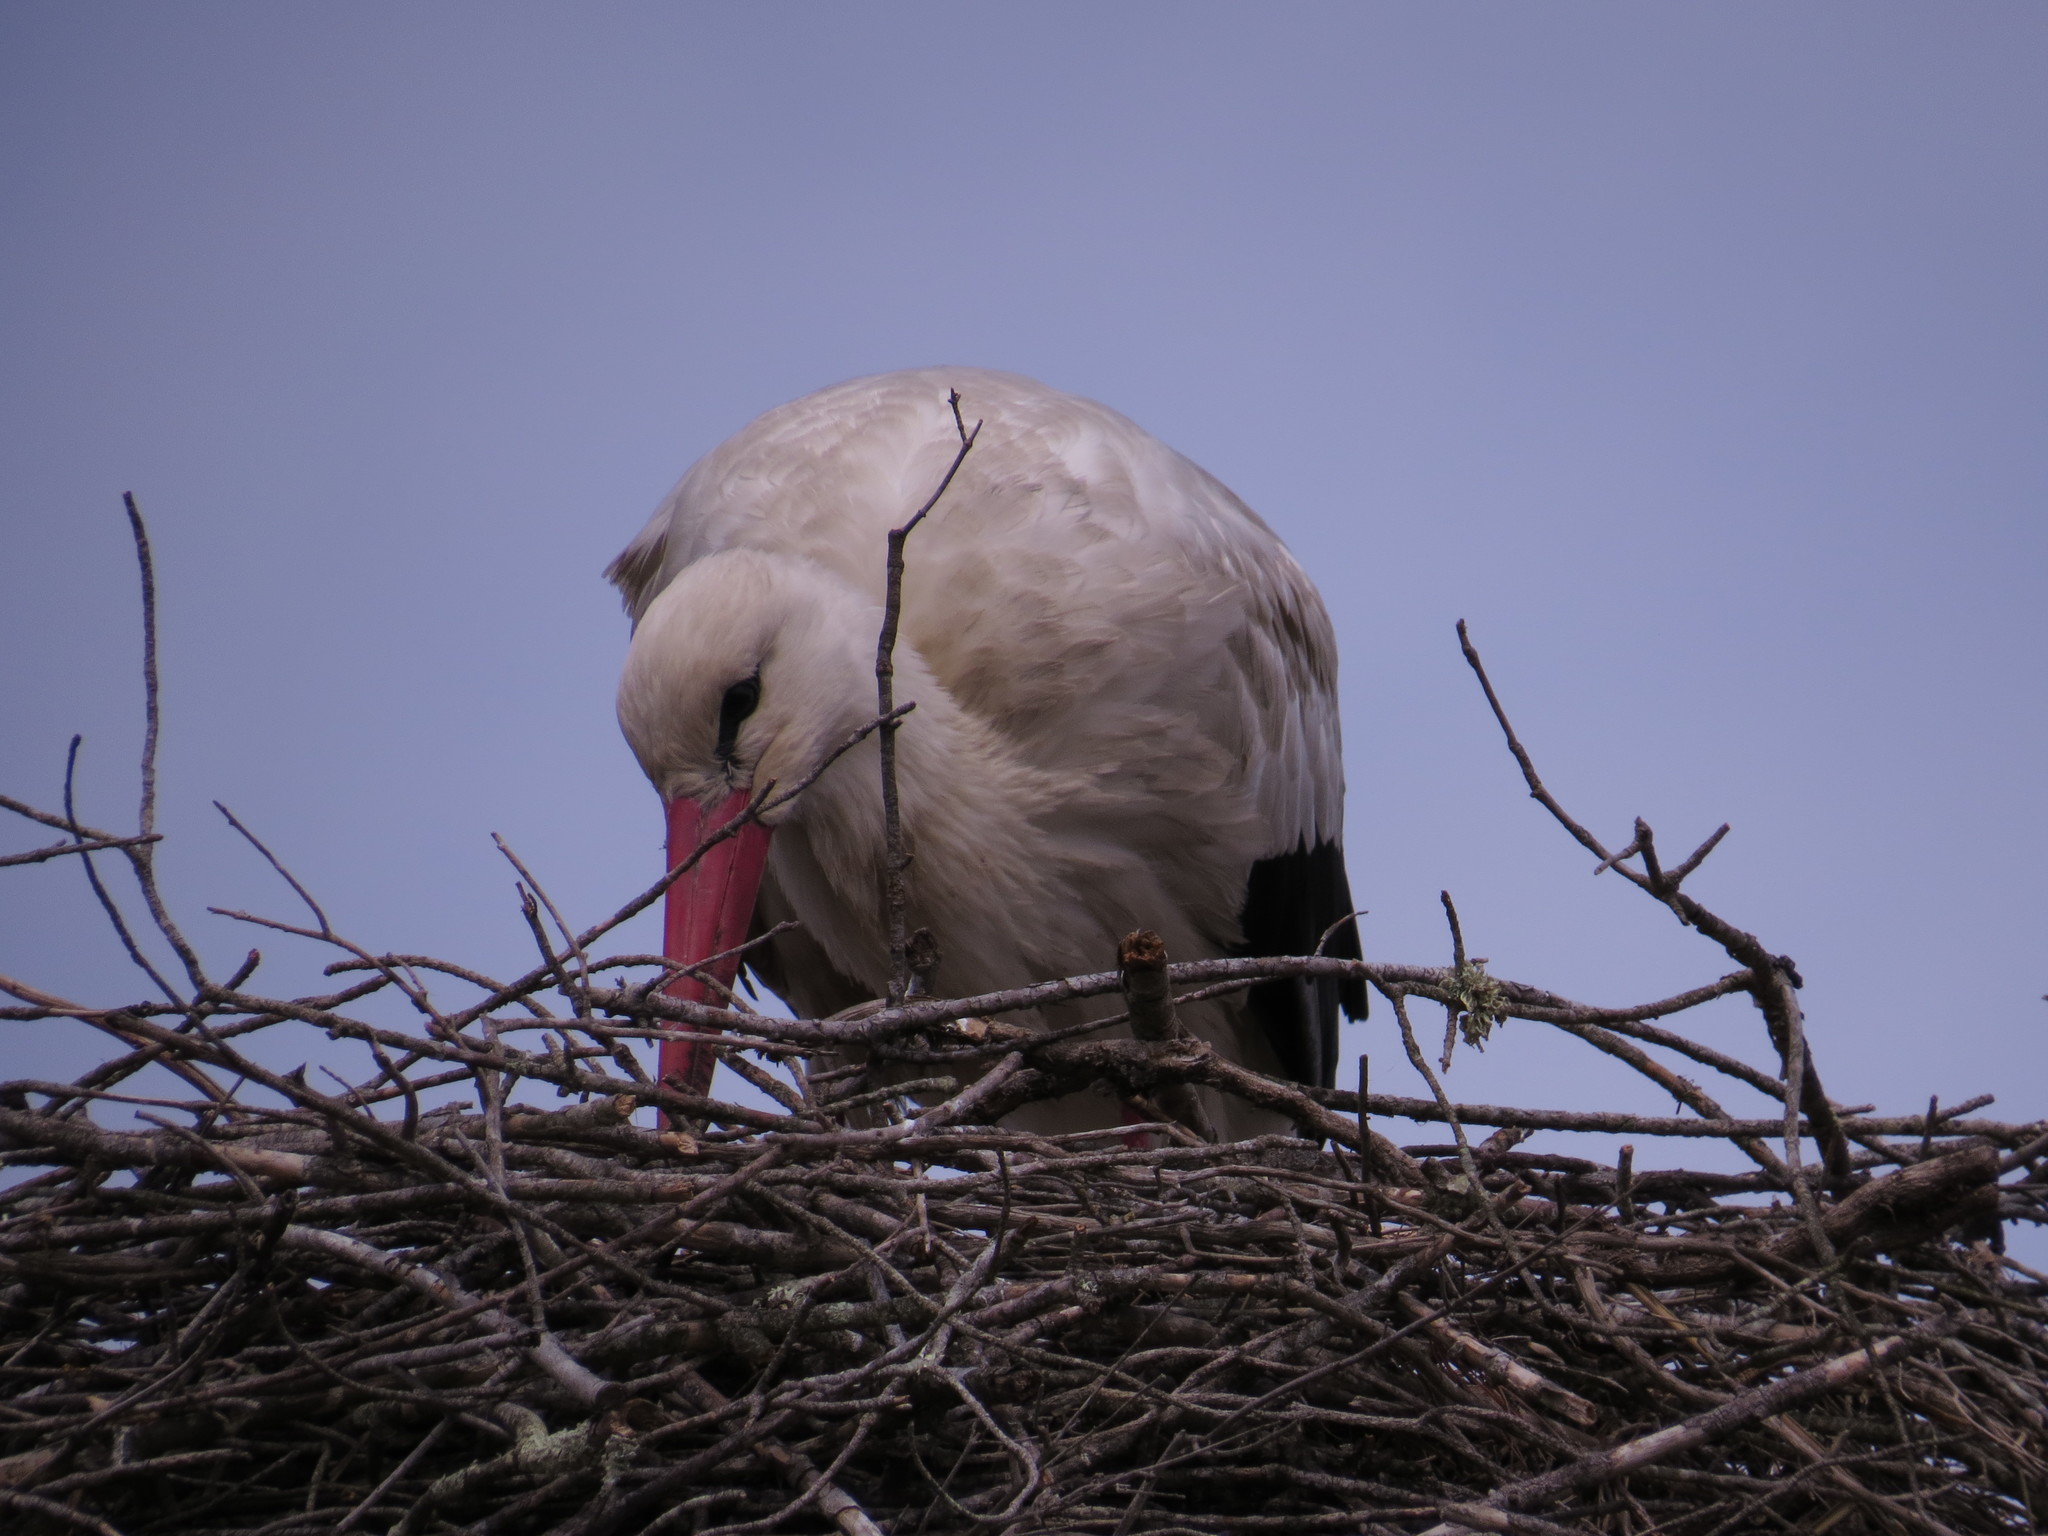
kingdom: Animalia
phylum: Chordata
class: Aves
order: Ciconiiformes
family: Ciconiidae
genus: Ciconia
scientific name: Ciconia ciconia
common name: White stork
